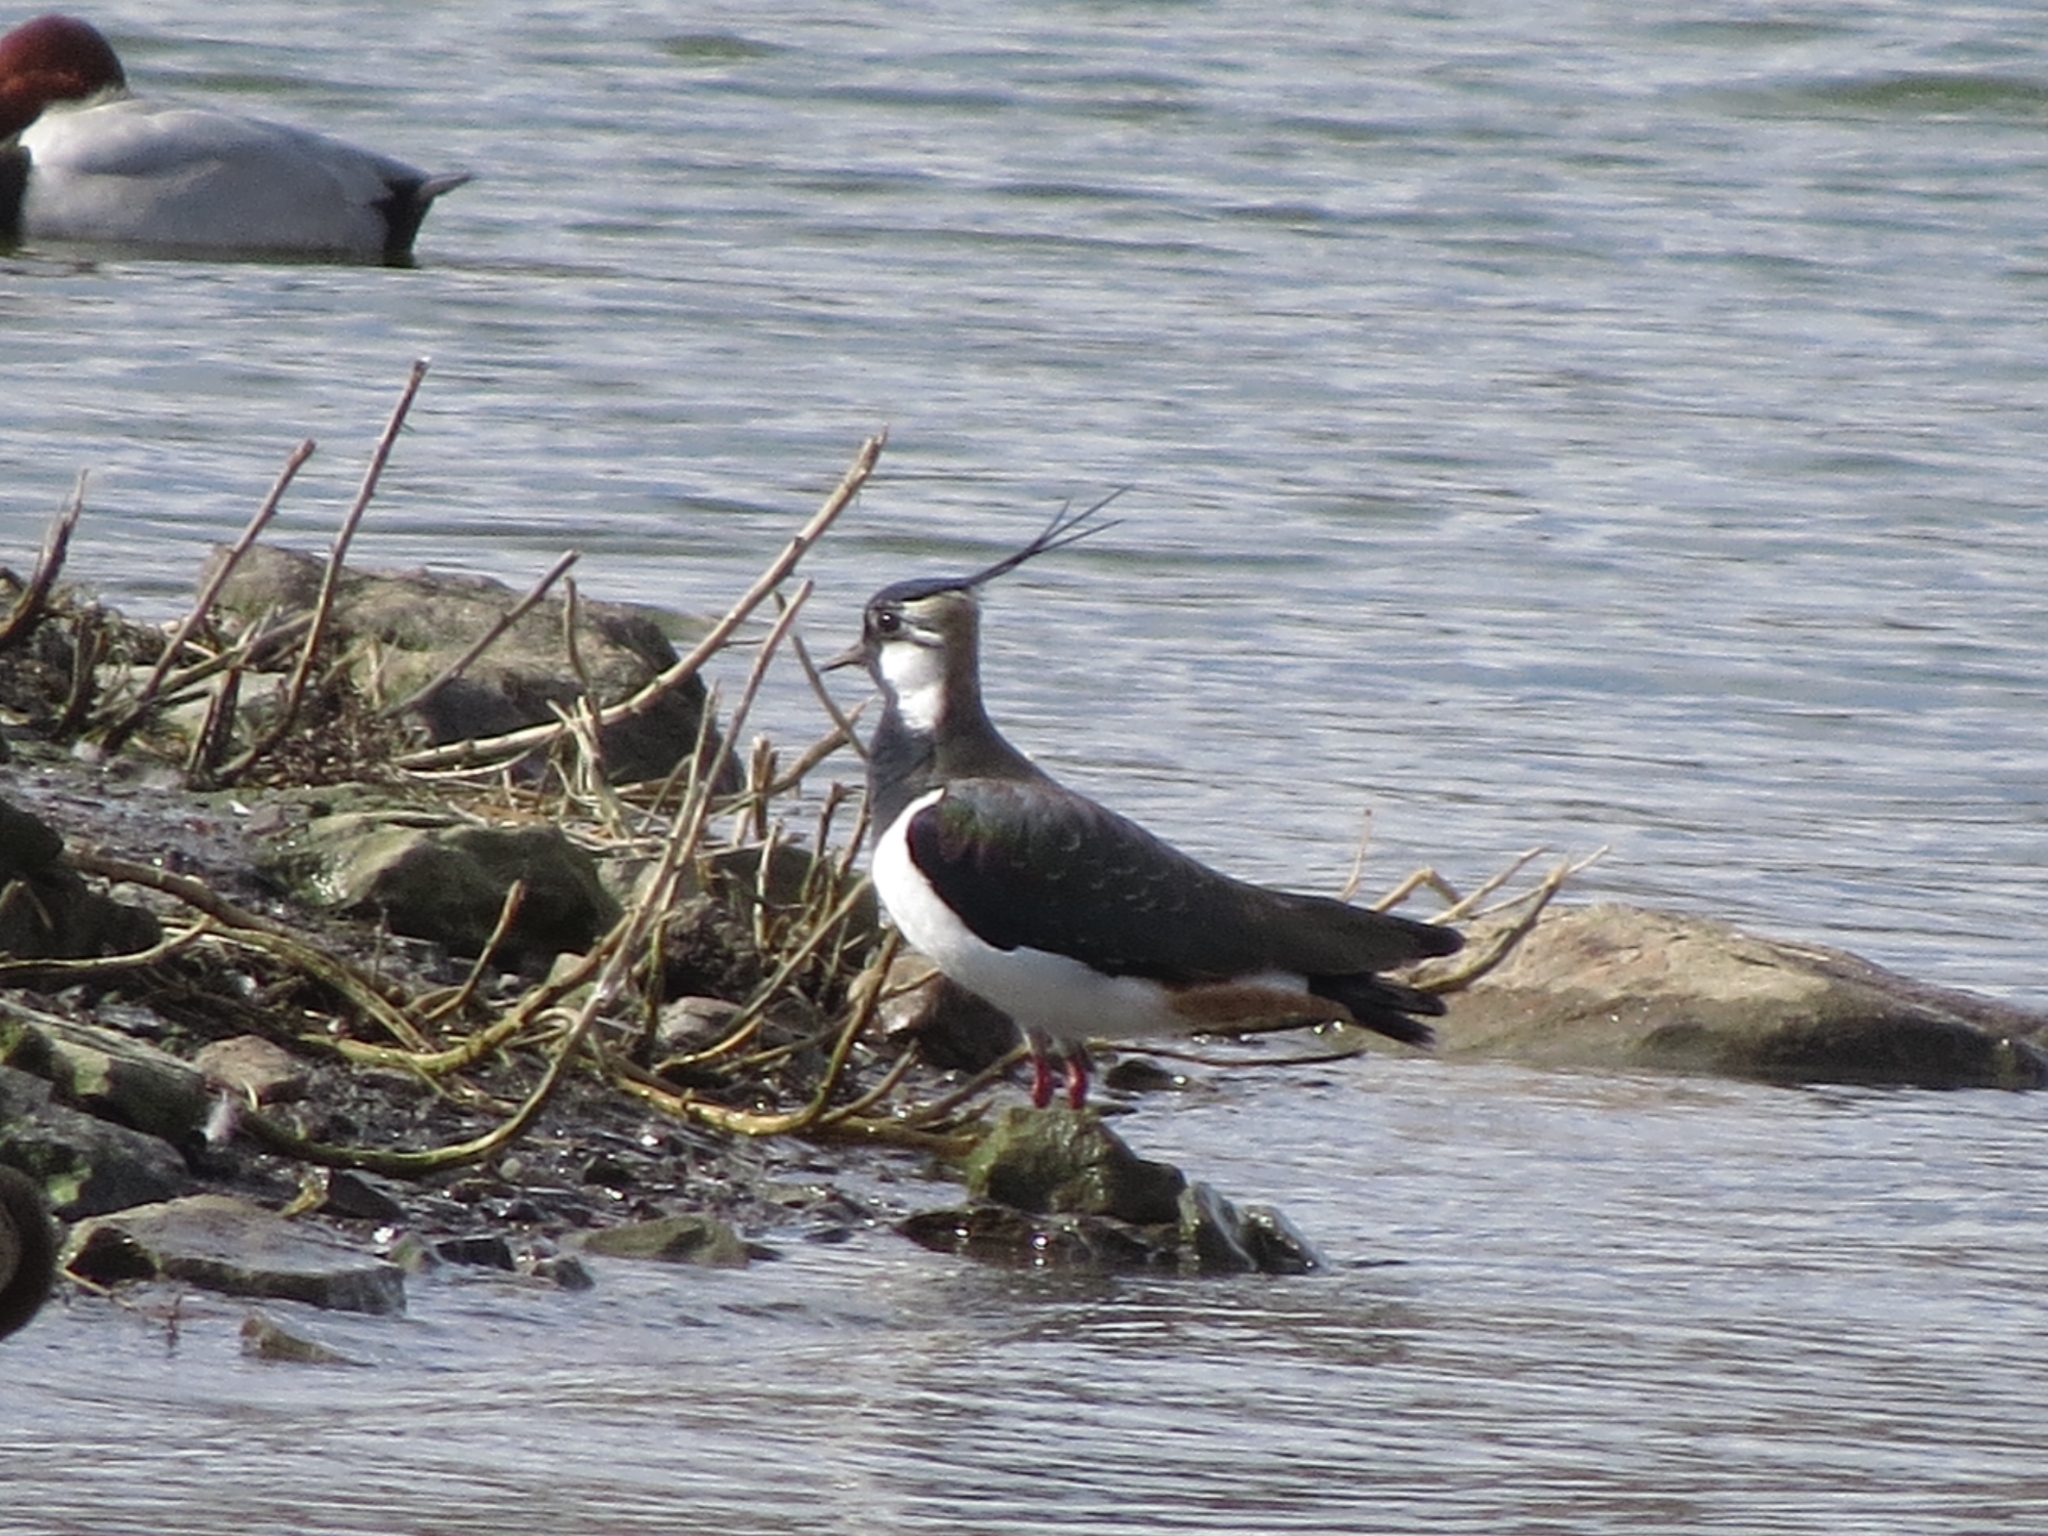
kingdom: Animalia
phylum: Chordata
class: Aves
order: Charadriiformes
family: Charadriidae
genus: Vanellus
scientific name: Vanellus vanellus
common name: Northern lapwing
